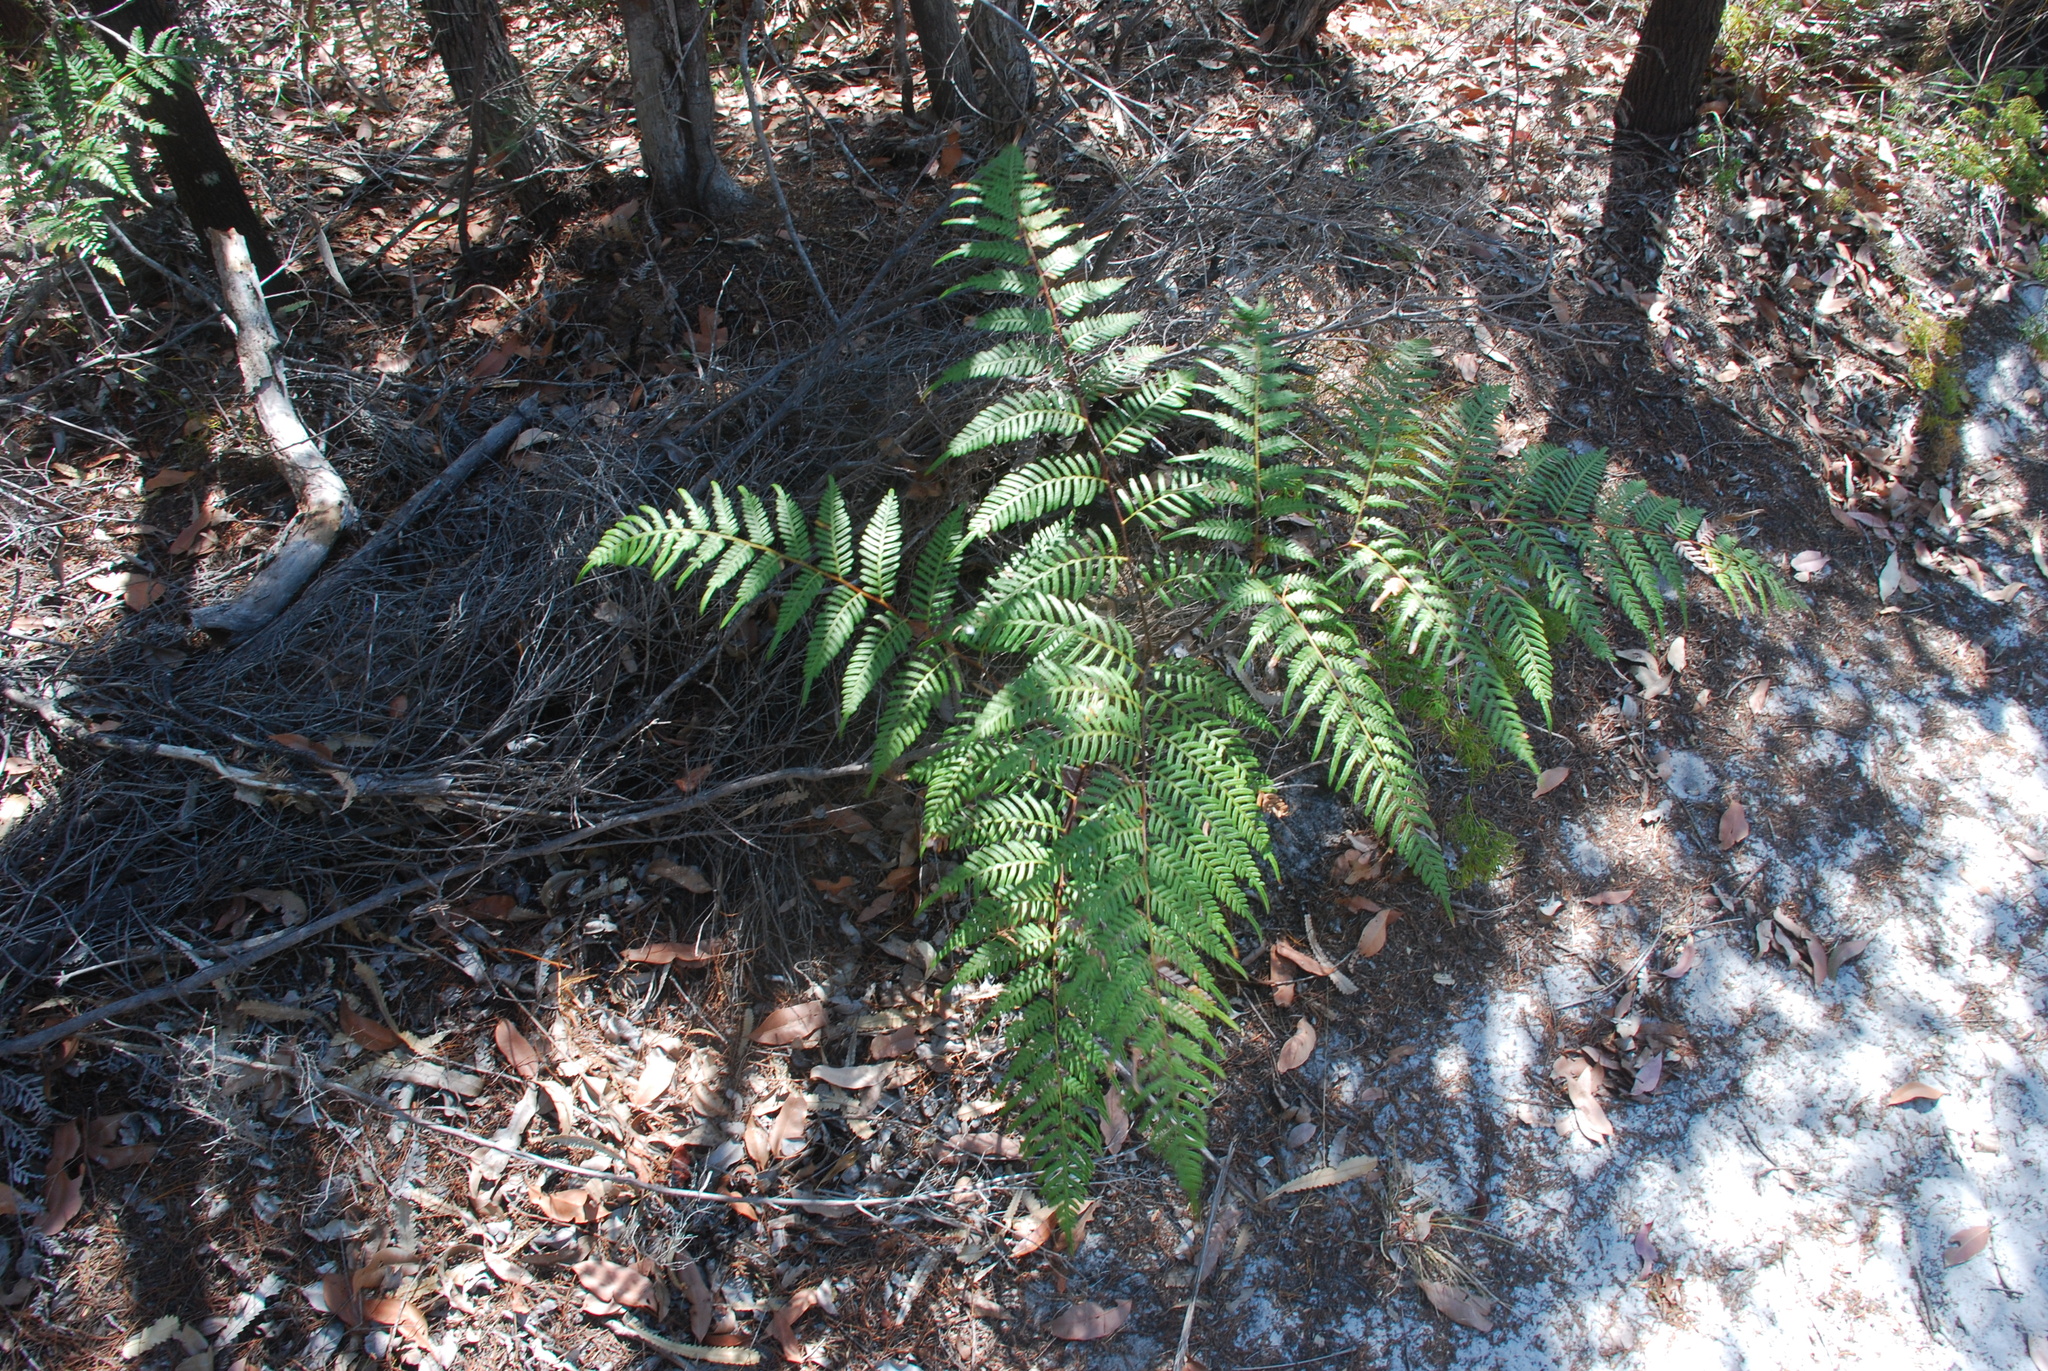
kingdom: Plantae
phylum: Tracheophyta
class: Polypodiopsida
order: Polypodiales
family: Dennstaedtiaceae
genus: Pteridium
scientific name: Pteridium esculentum
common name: Bracken fern
